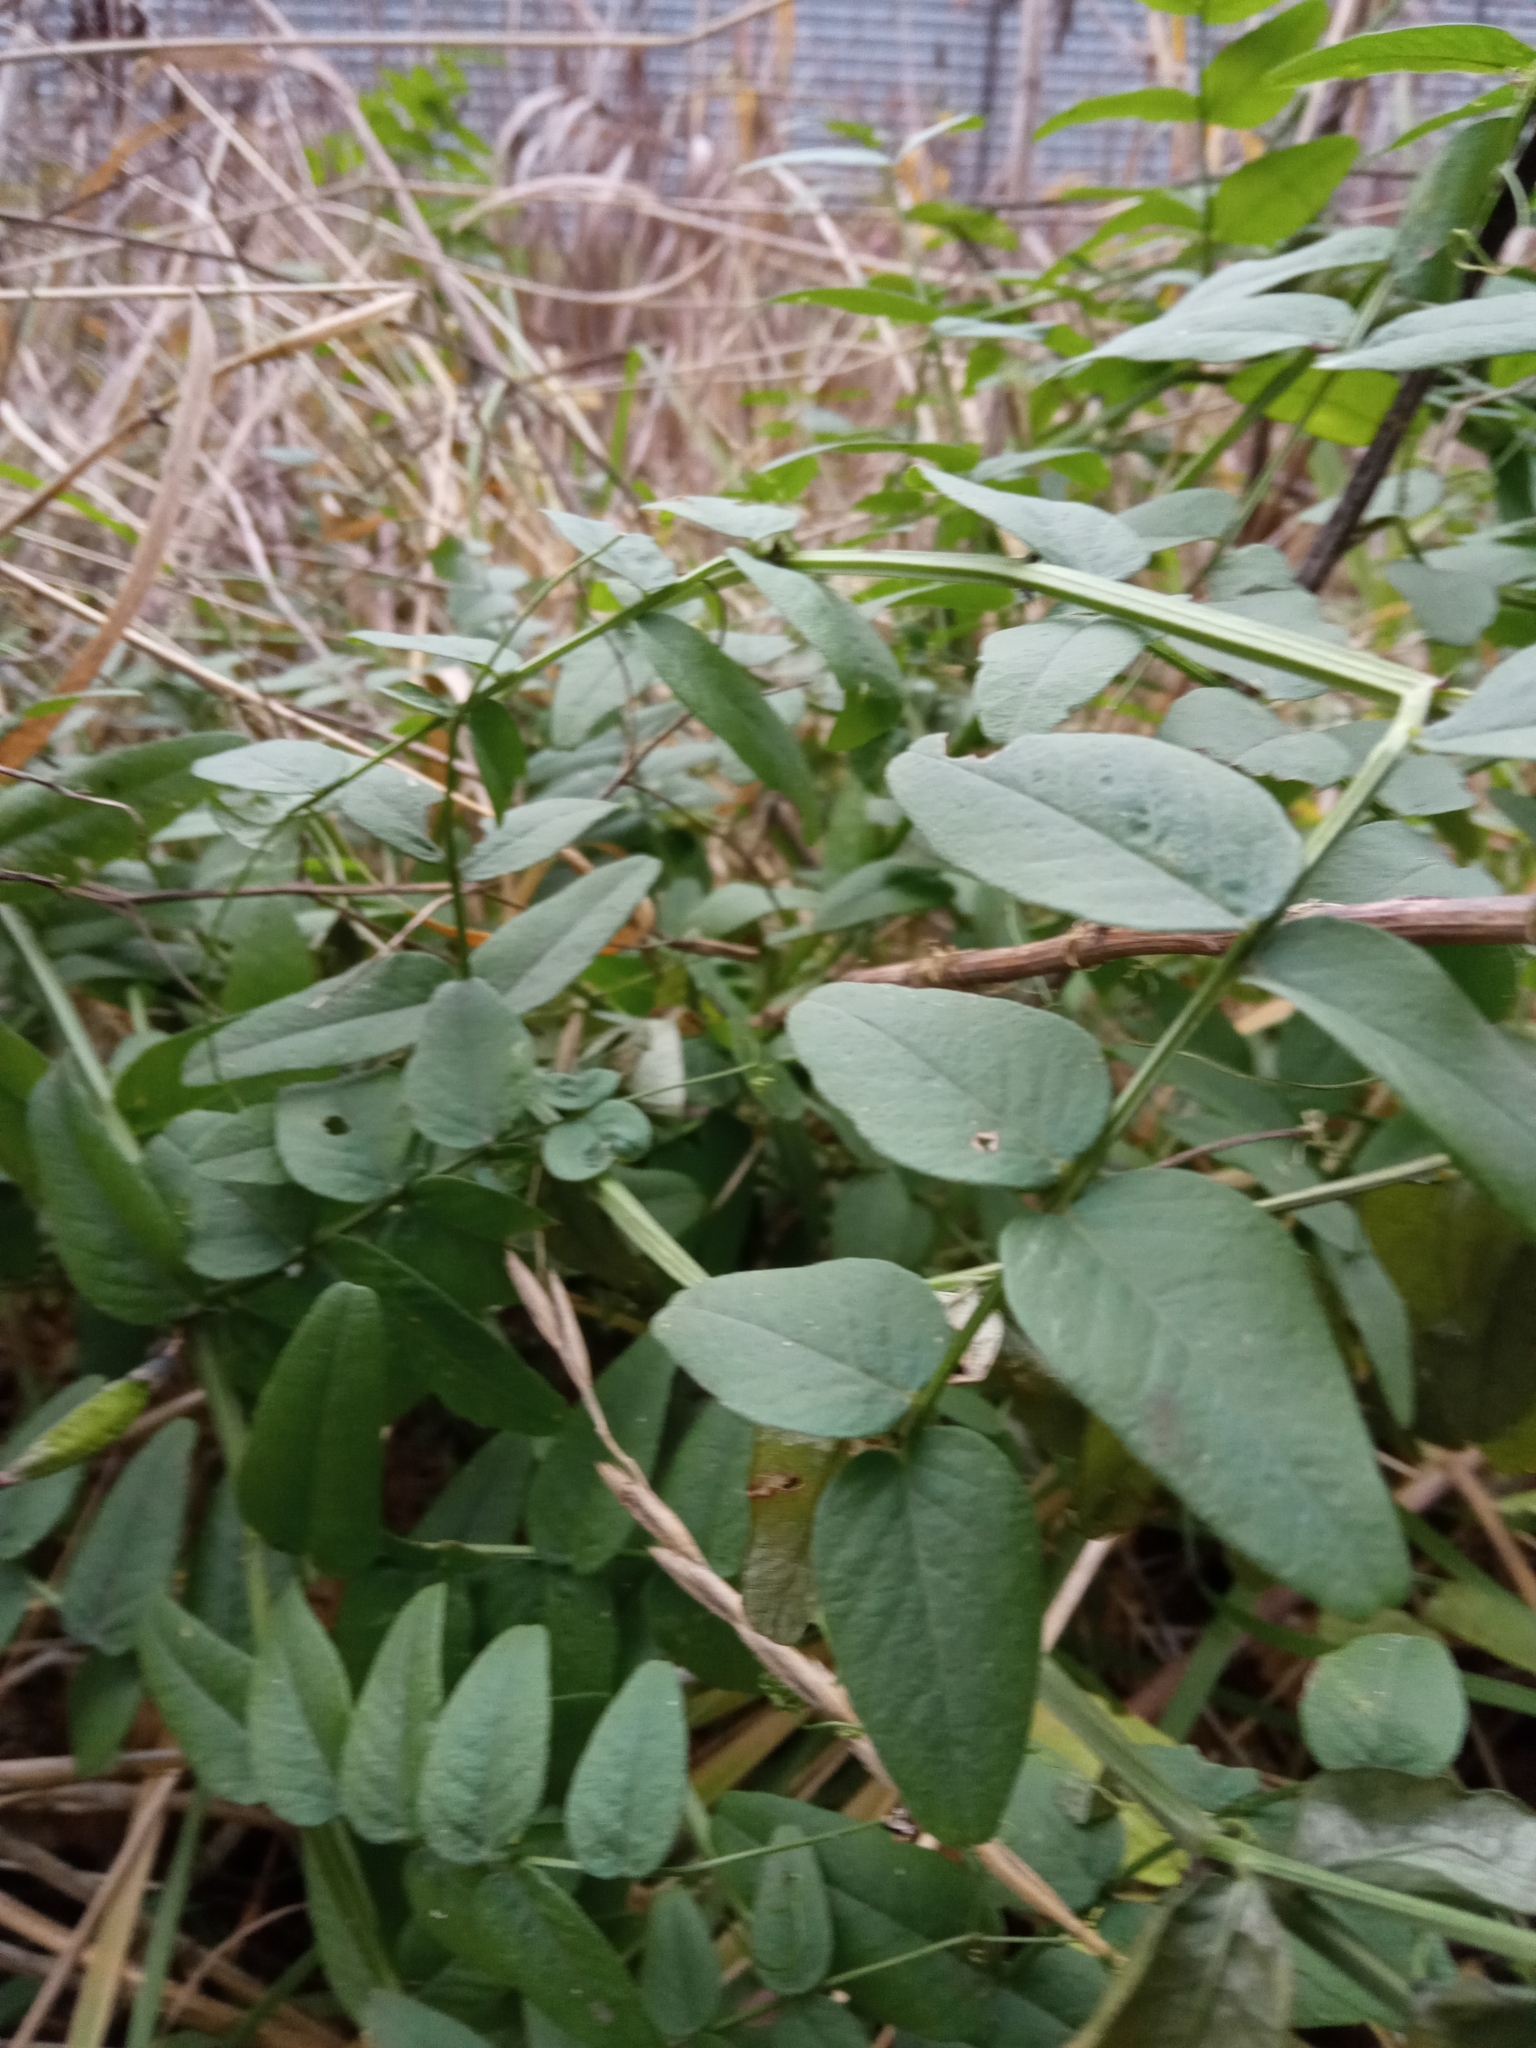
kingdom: Plantae
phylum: Tracheophyta
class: Magnoliopsida
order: Fabales
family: Fabaceae
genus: Vicia
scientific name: Vicia sepium
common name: Bush vetch
